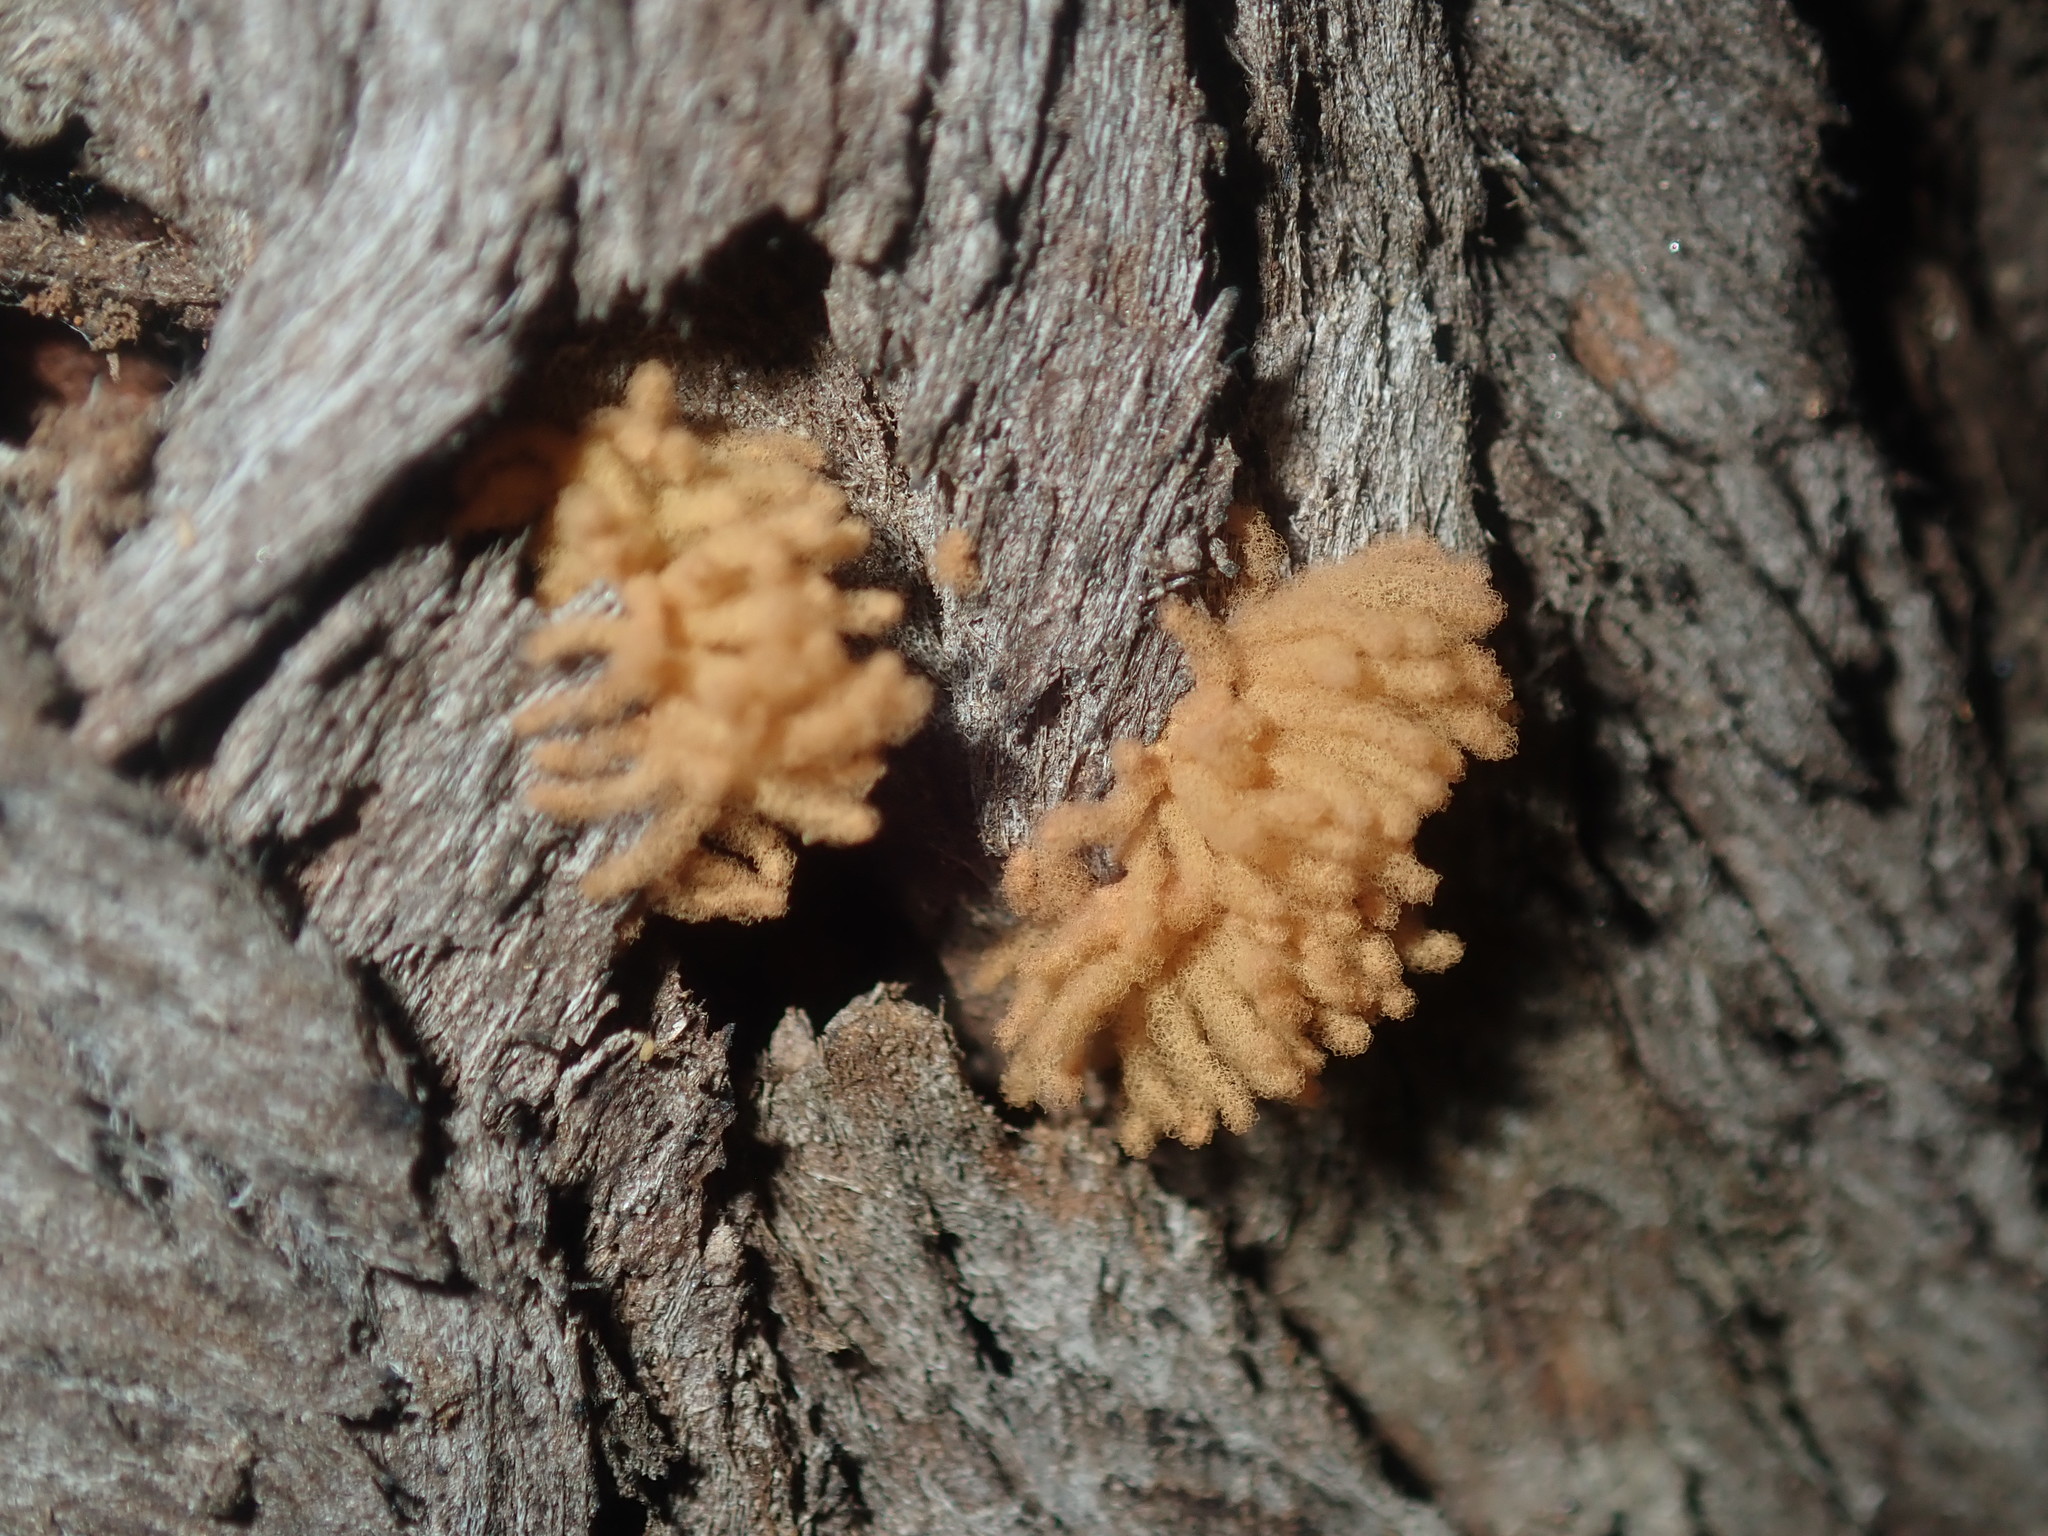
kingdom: Protozoa
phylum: Mycetozoa
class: Myxomycetes
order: Trichiales
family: Arcyriaceae
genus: Arcyria
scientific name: Arcyria obvelata
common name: Yellow carnival candy slime
